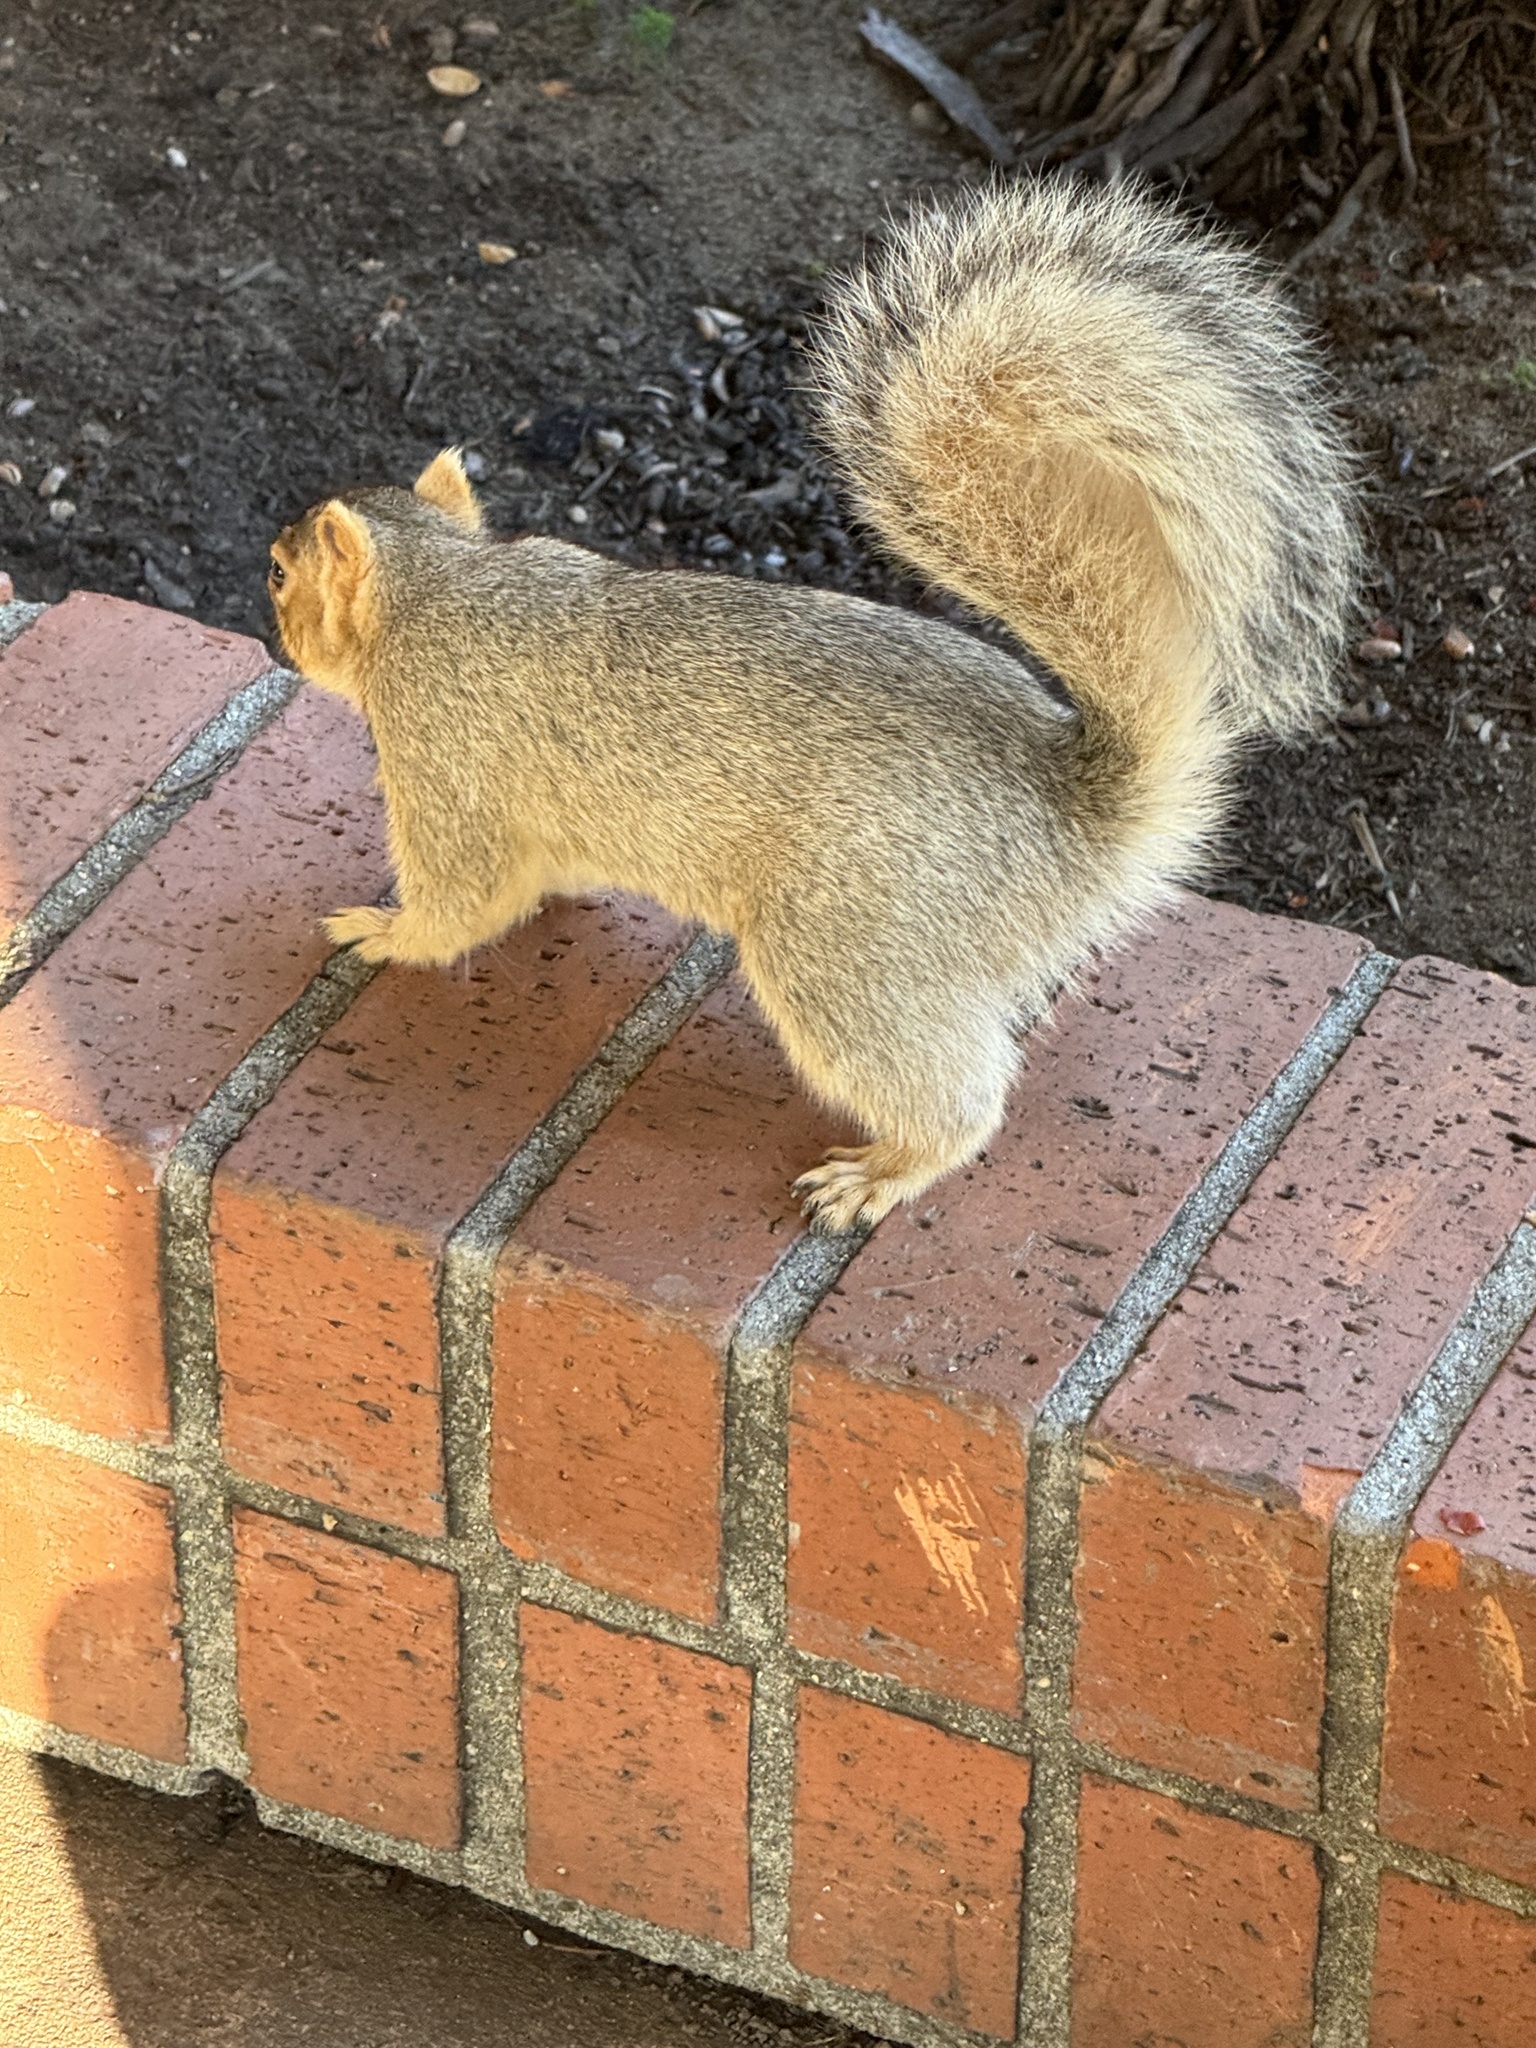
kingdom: Animalia
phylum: Chordata
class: Mammalia
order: Rodentia
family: Sciuridae
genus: Sciurus
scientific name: Sciurus niger
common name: Fox squirrel
